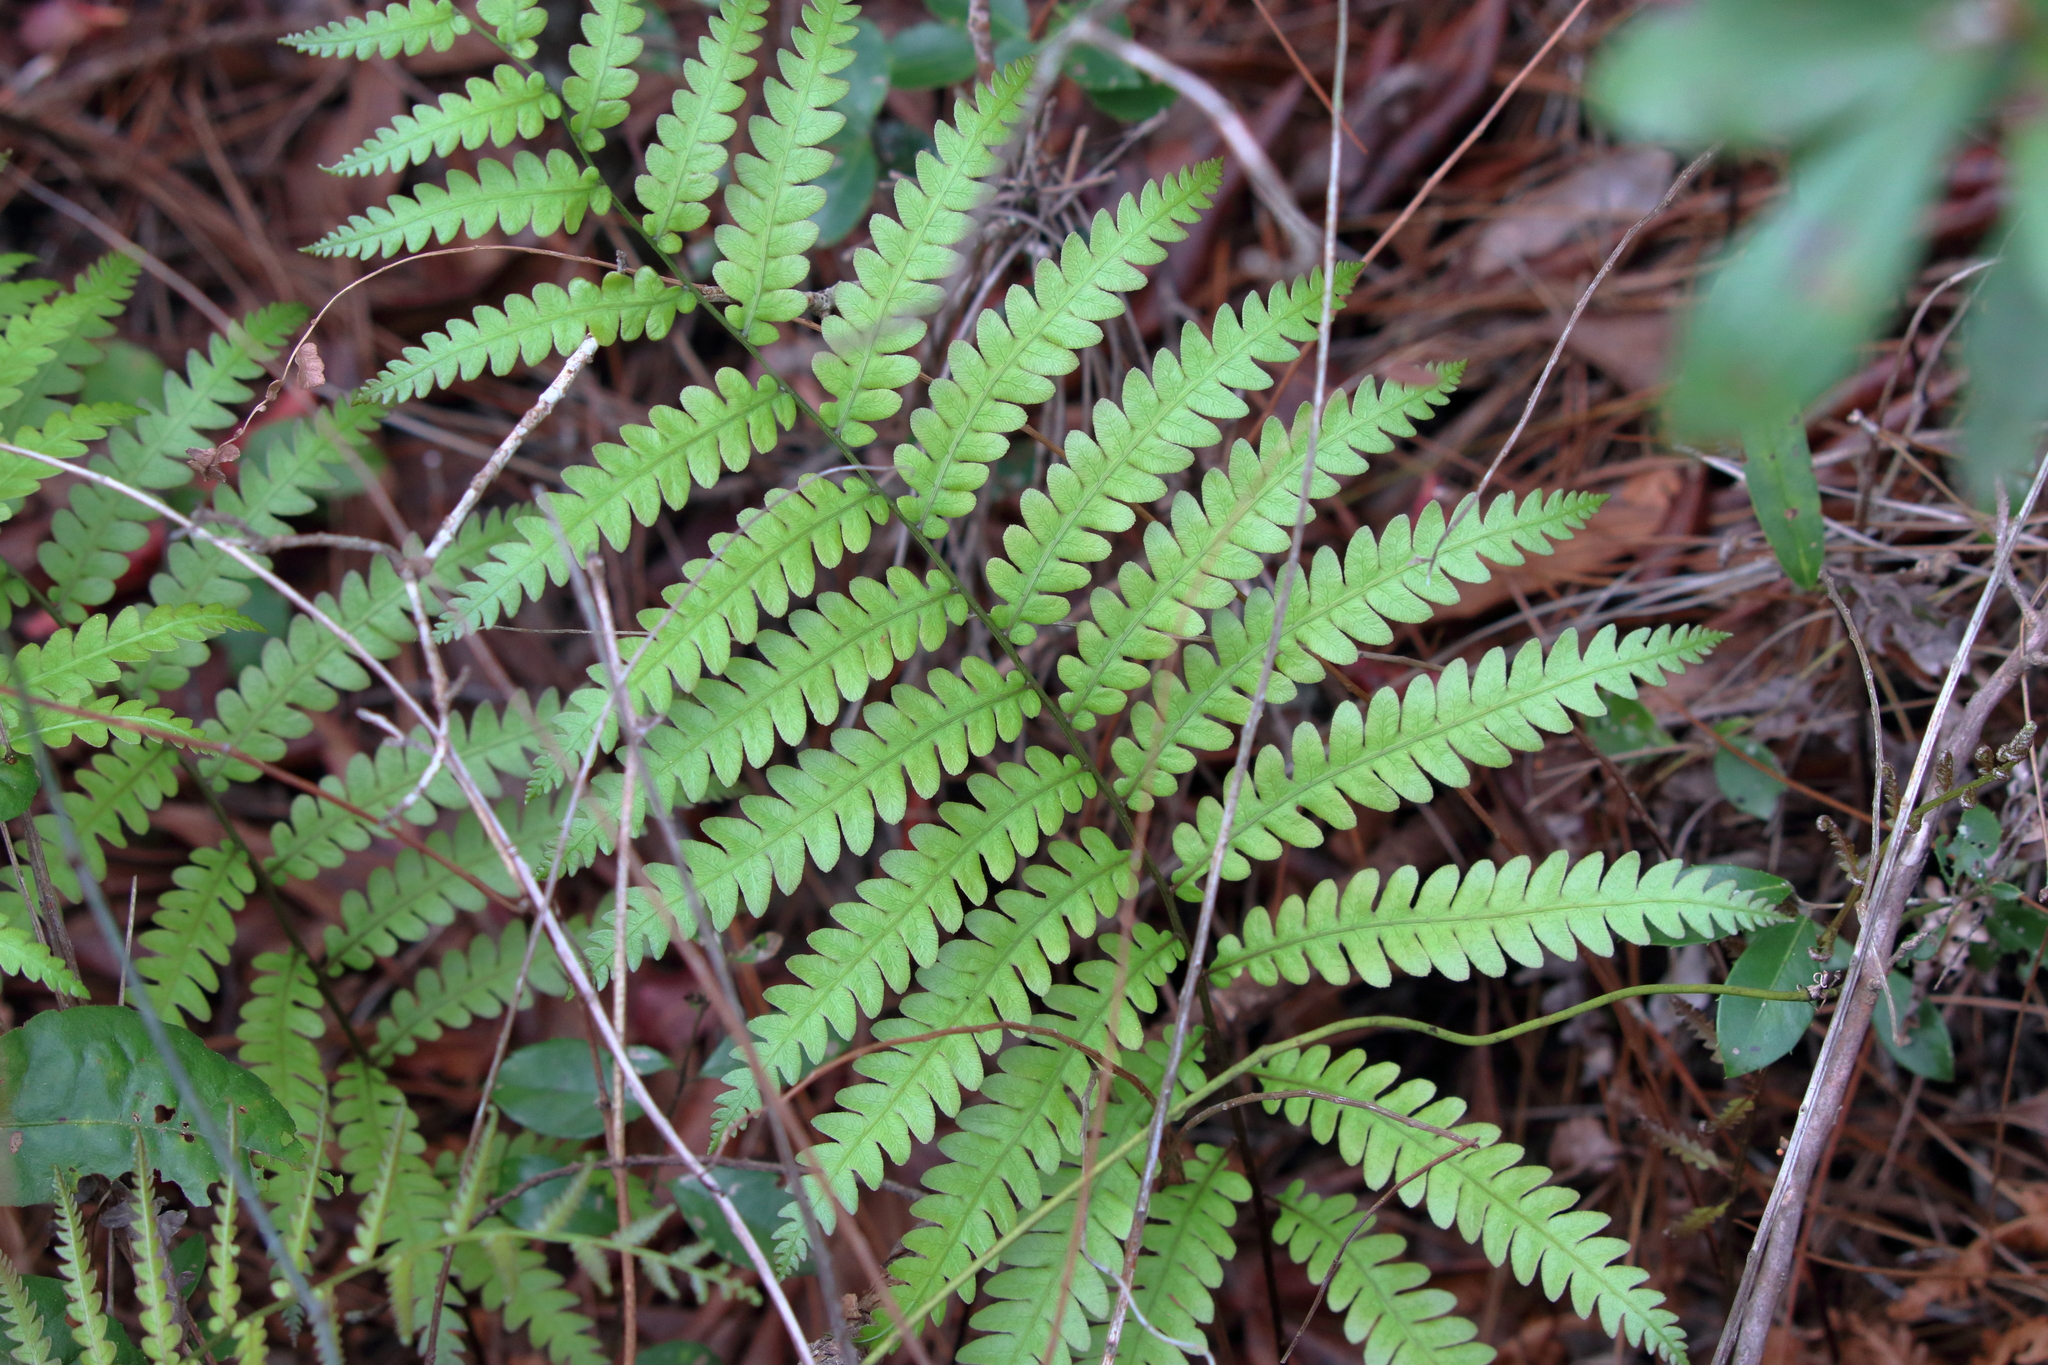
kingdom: Plantae
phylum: Tracheophyta
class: Polypodiopsida
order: Polypodiales
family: Blechnaceae
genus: Anchistea
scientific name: Anchistea virginica
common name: Virginia chain fern
